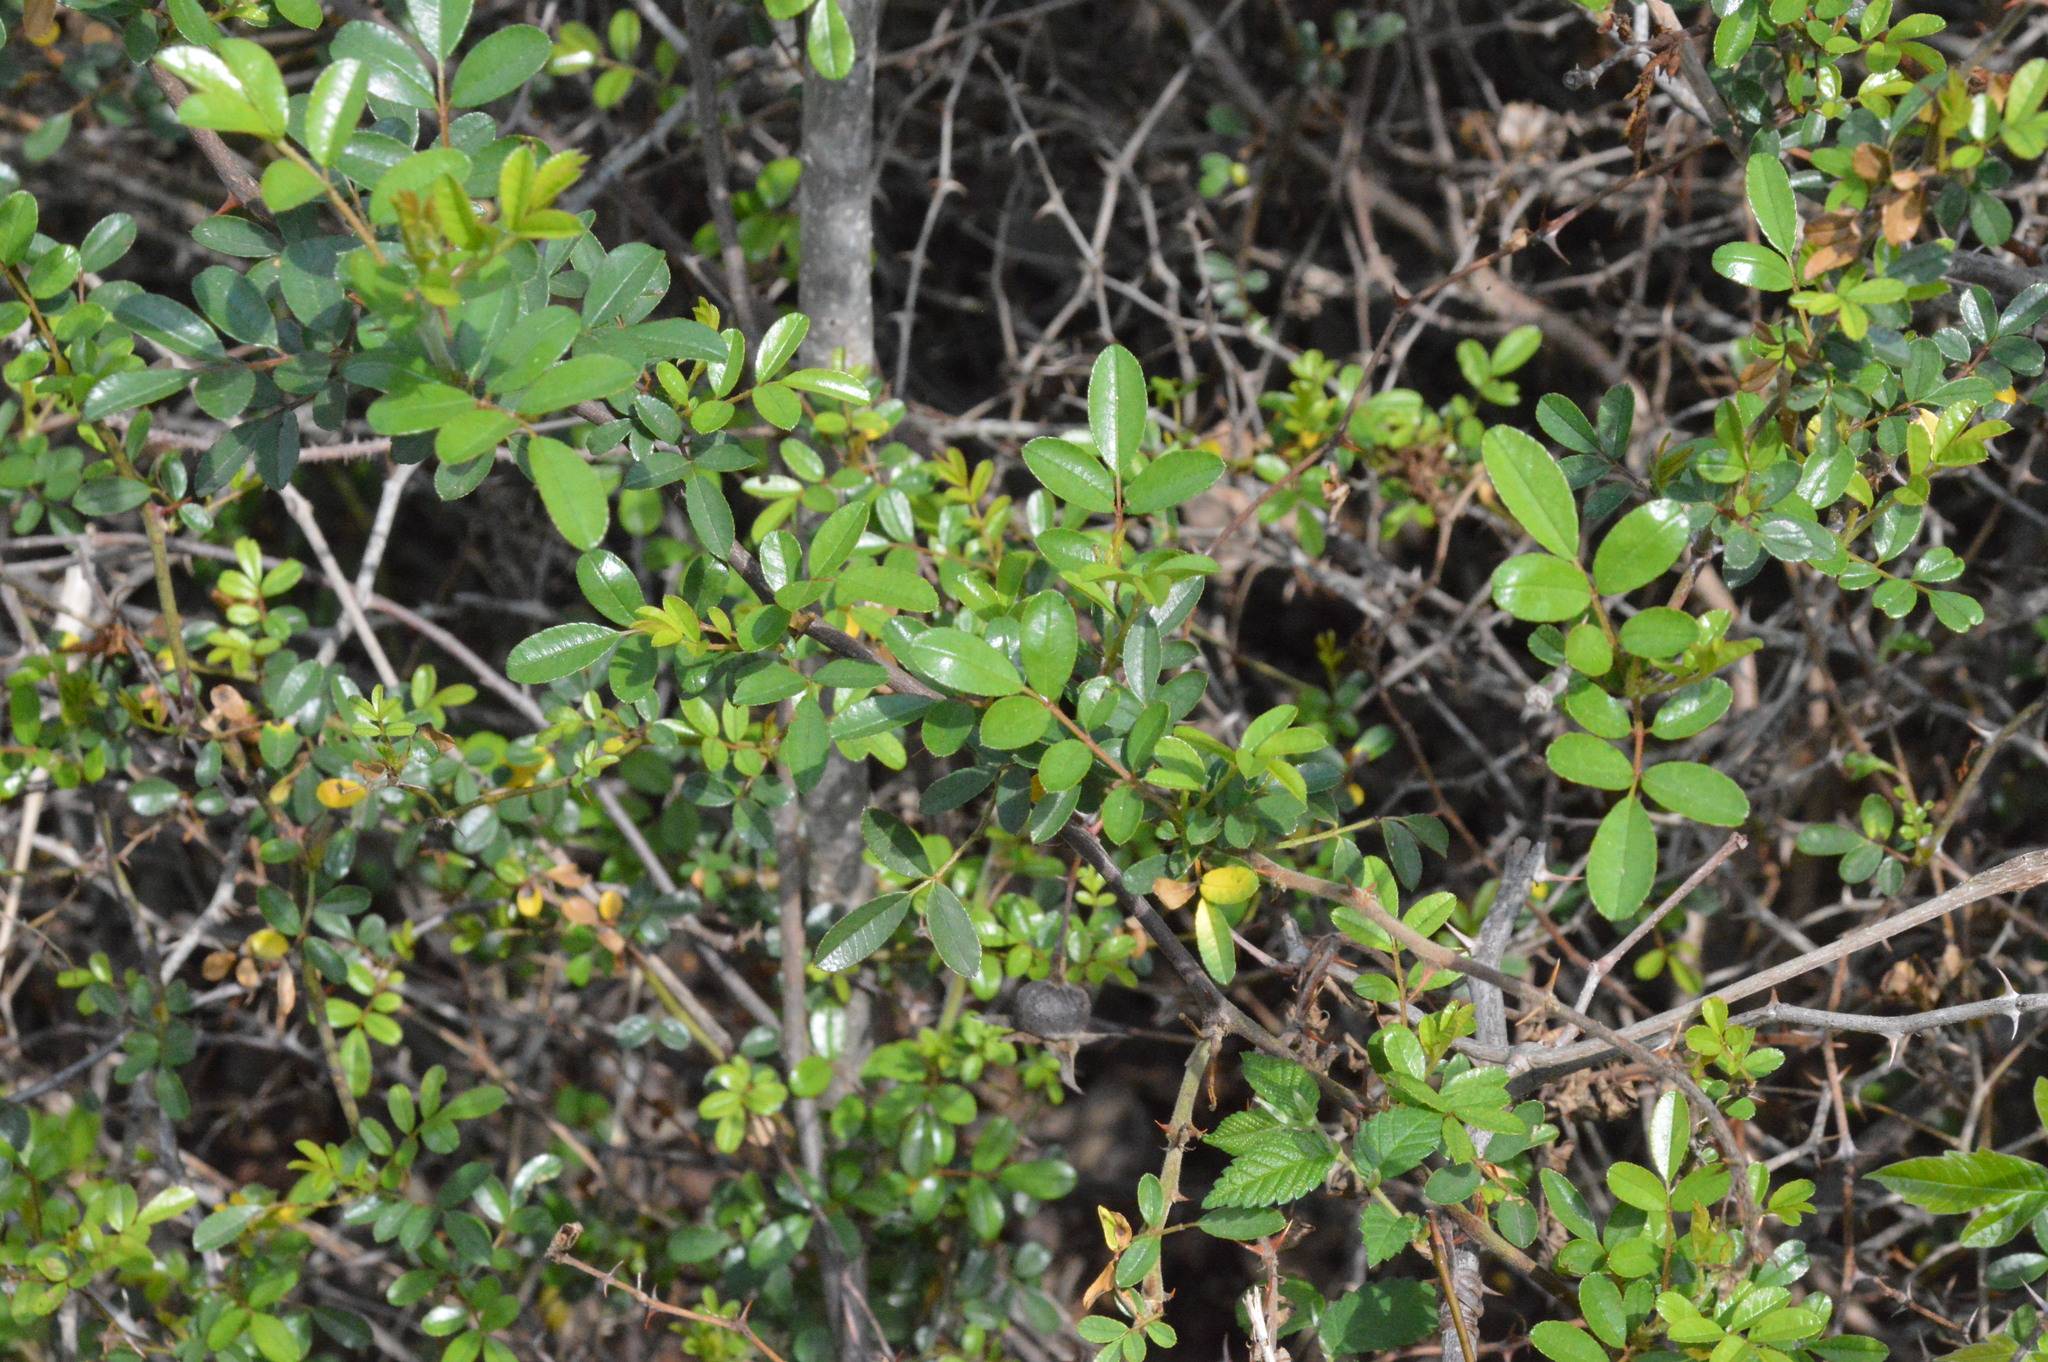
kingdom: Plantae
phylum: Tracheophyta
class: Magnoliopsida
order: Rosales
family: Rosaceae
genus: Rosa
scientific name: Rosa bracteata
